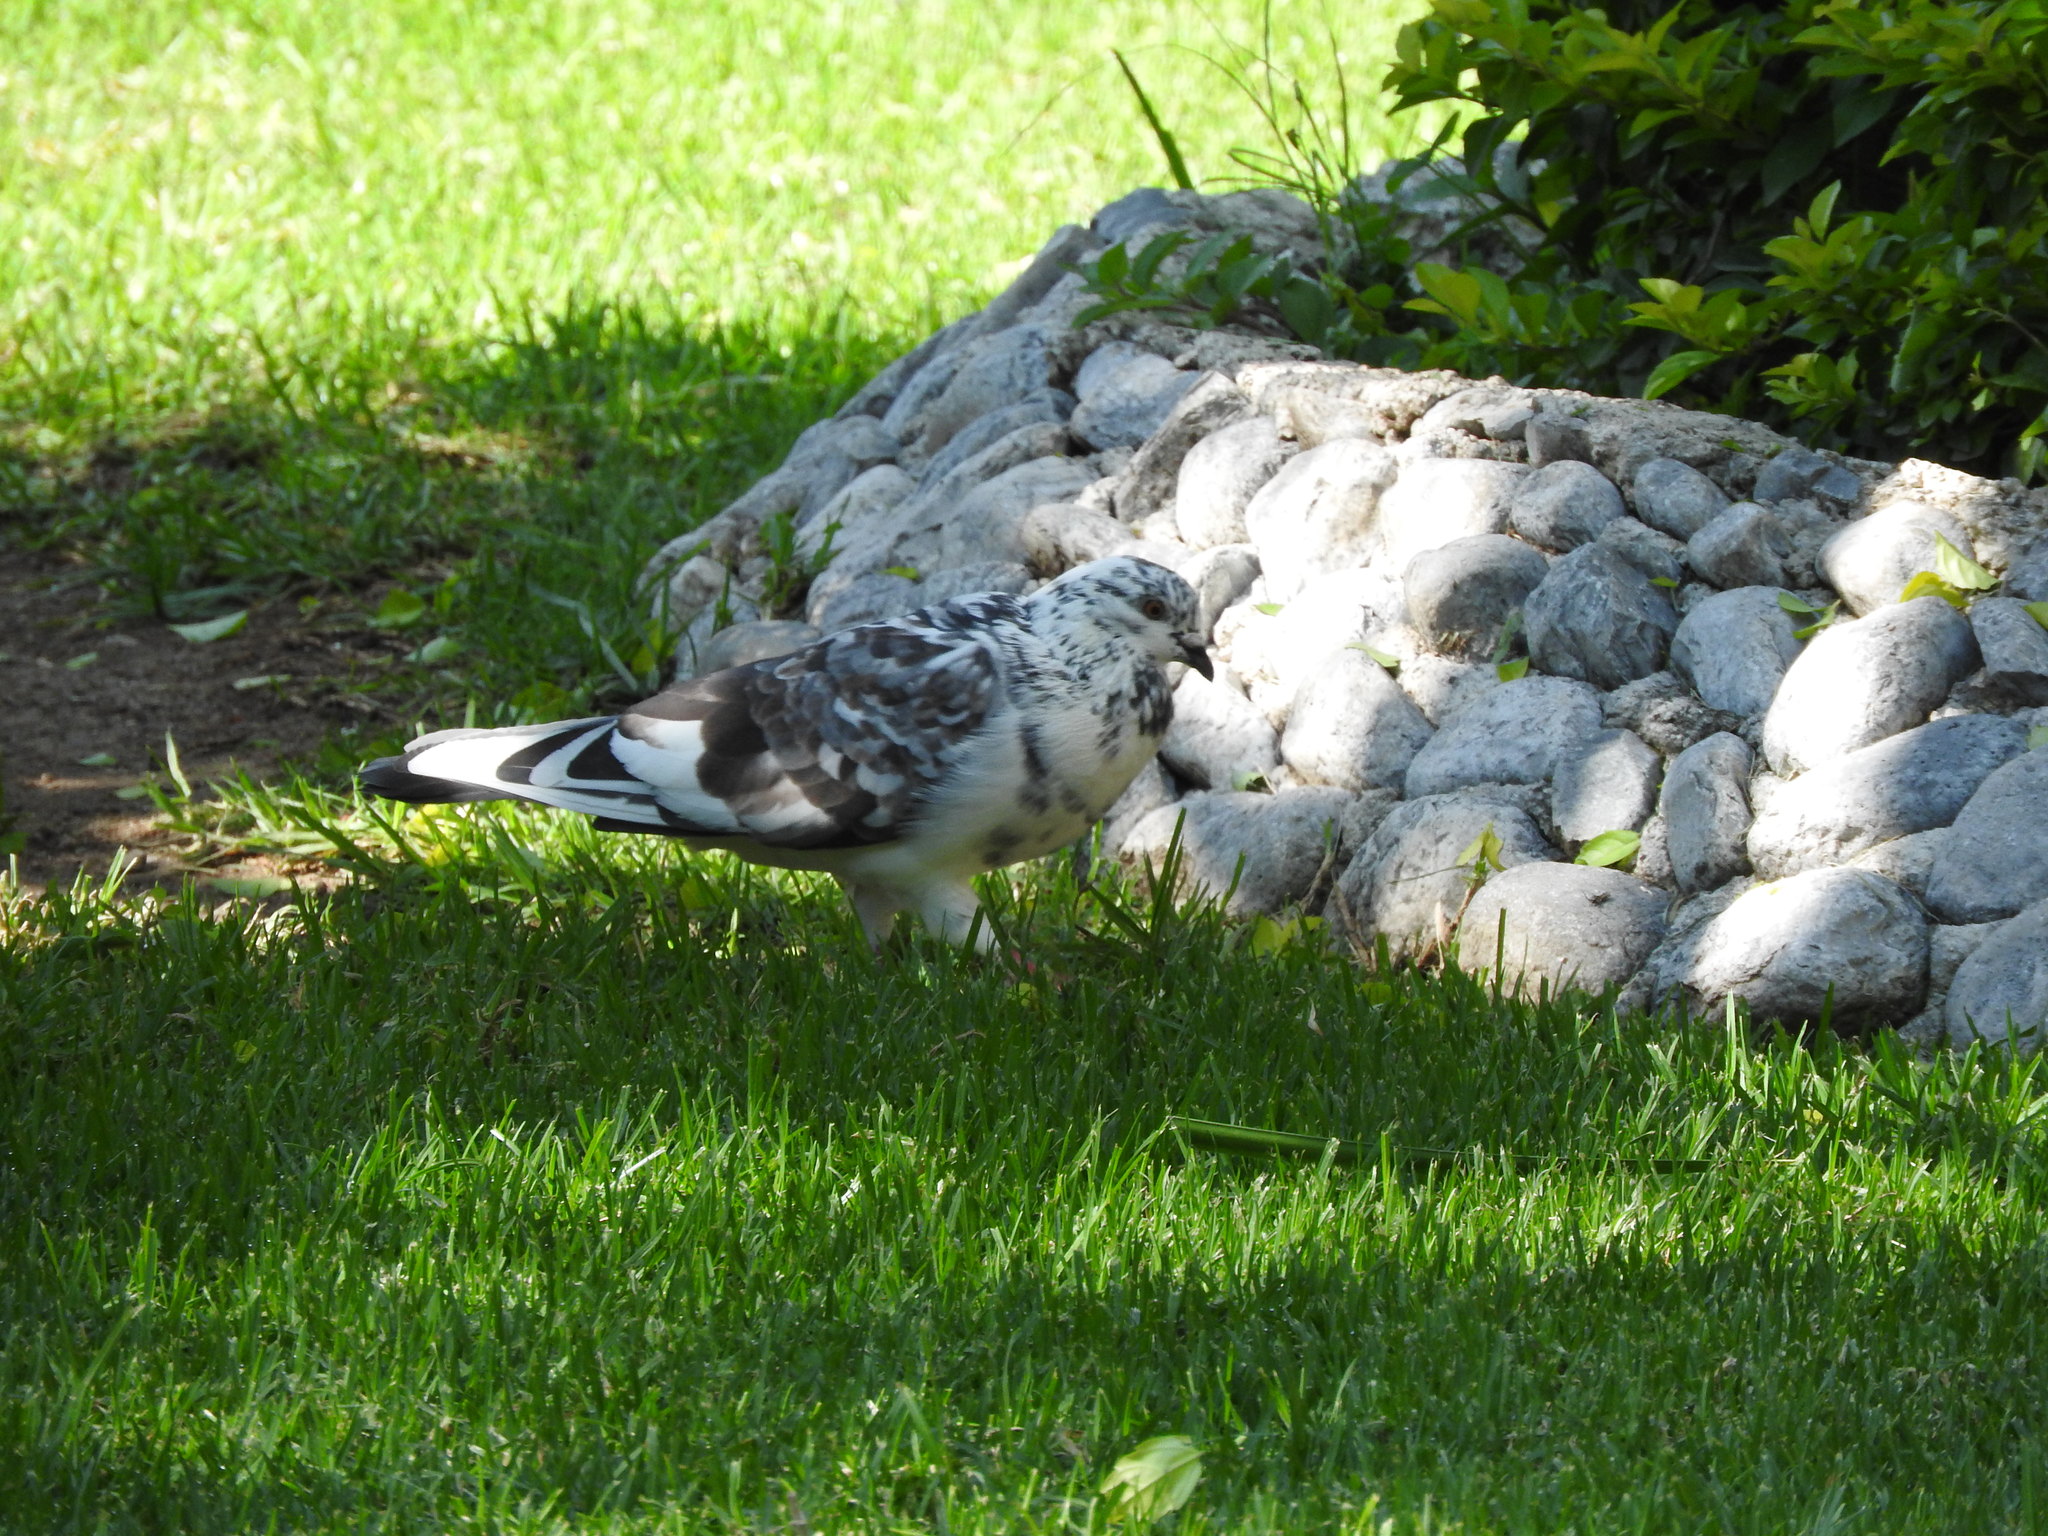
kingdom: Animalia
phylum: Chordata
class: Aves
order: Columbiformes
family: Columbidae
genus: Columba
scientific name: Columba livia
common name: Rock pigeon
